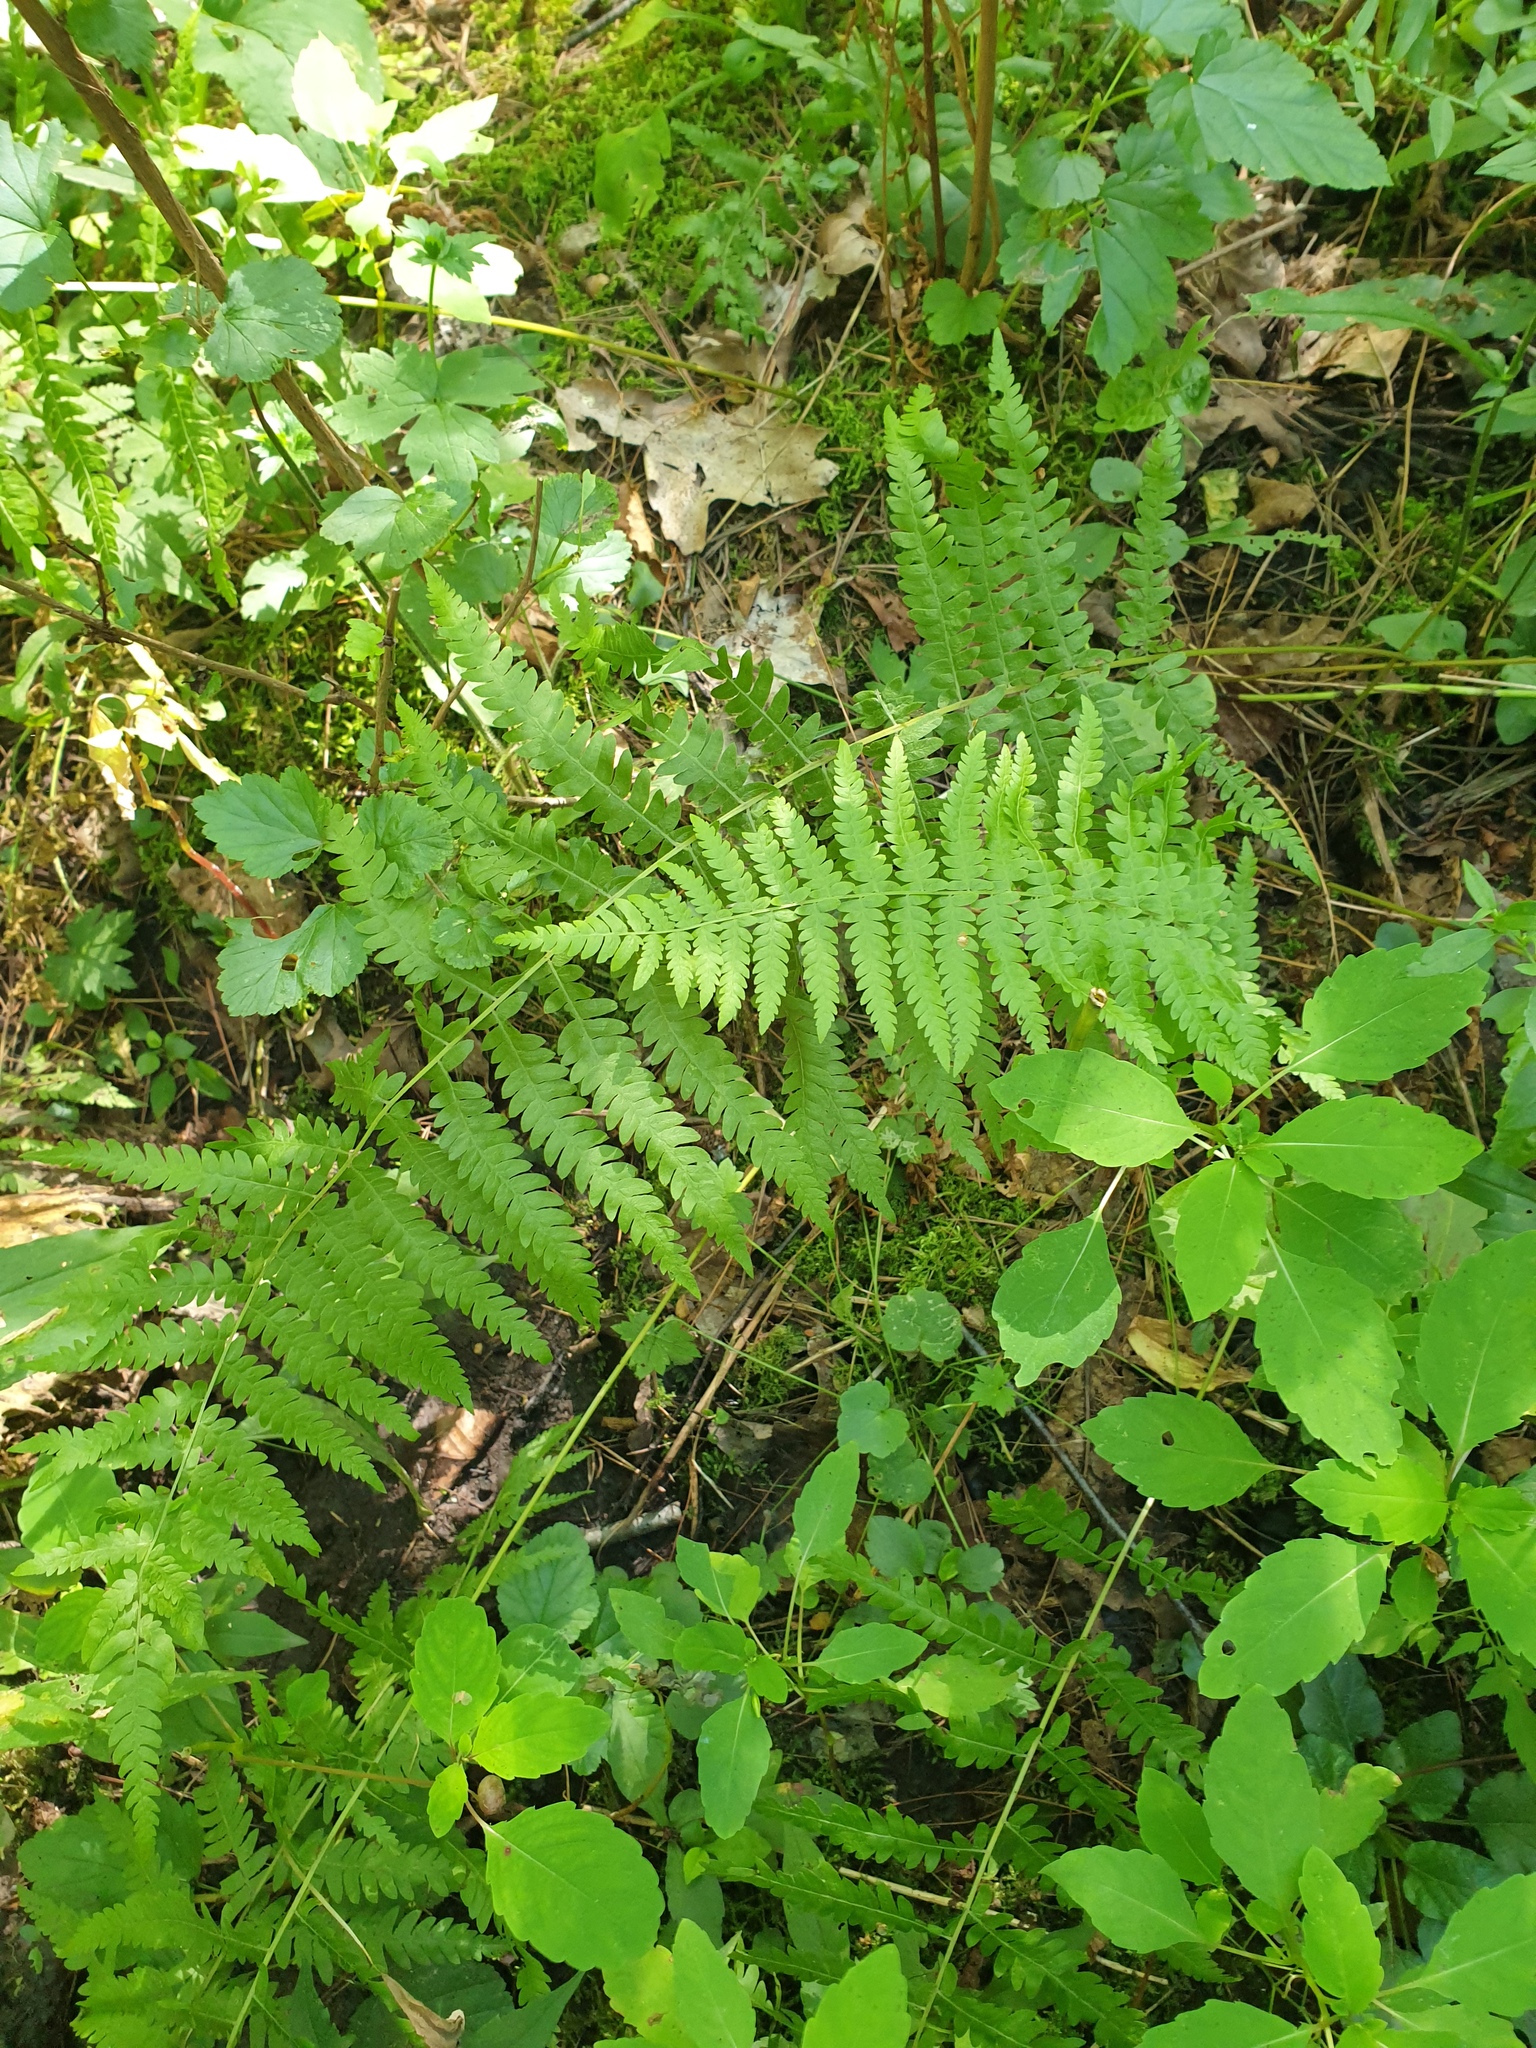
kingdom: Plantae
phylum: Tracheophyta
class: Polypodiopsida
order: Polypodiales
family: Thelypteridaceae
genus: Thelypteris
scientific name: Thelypteris palustris
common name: Marsh fern
